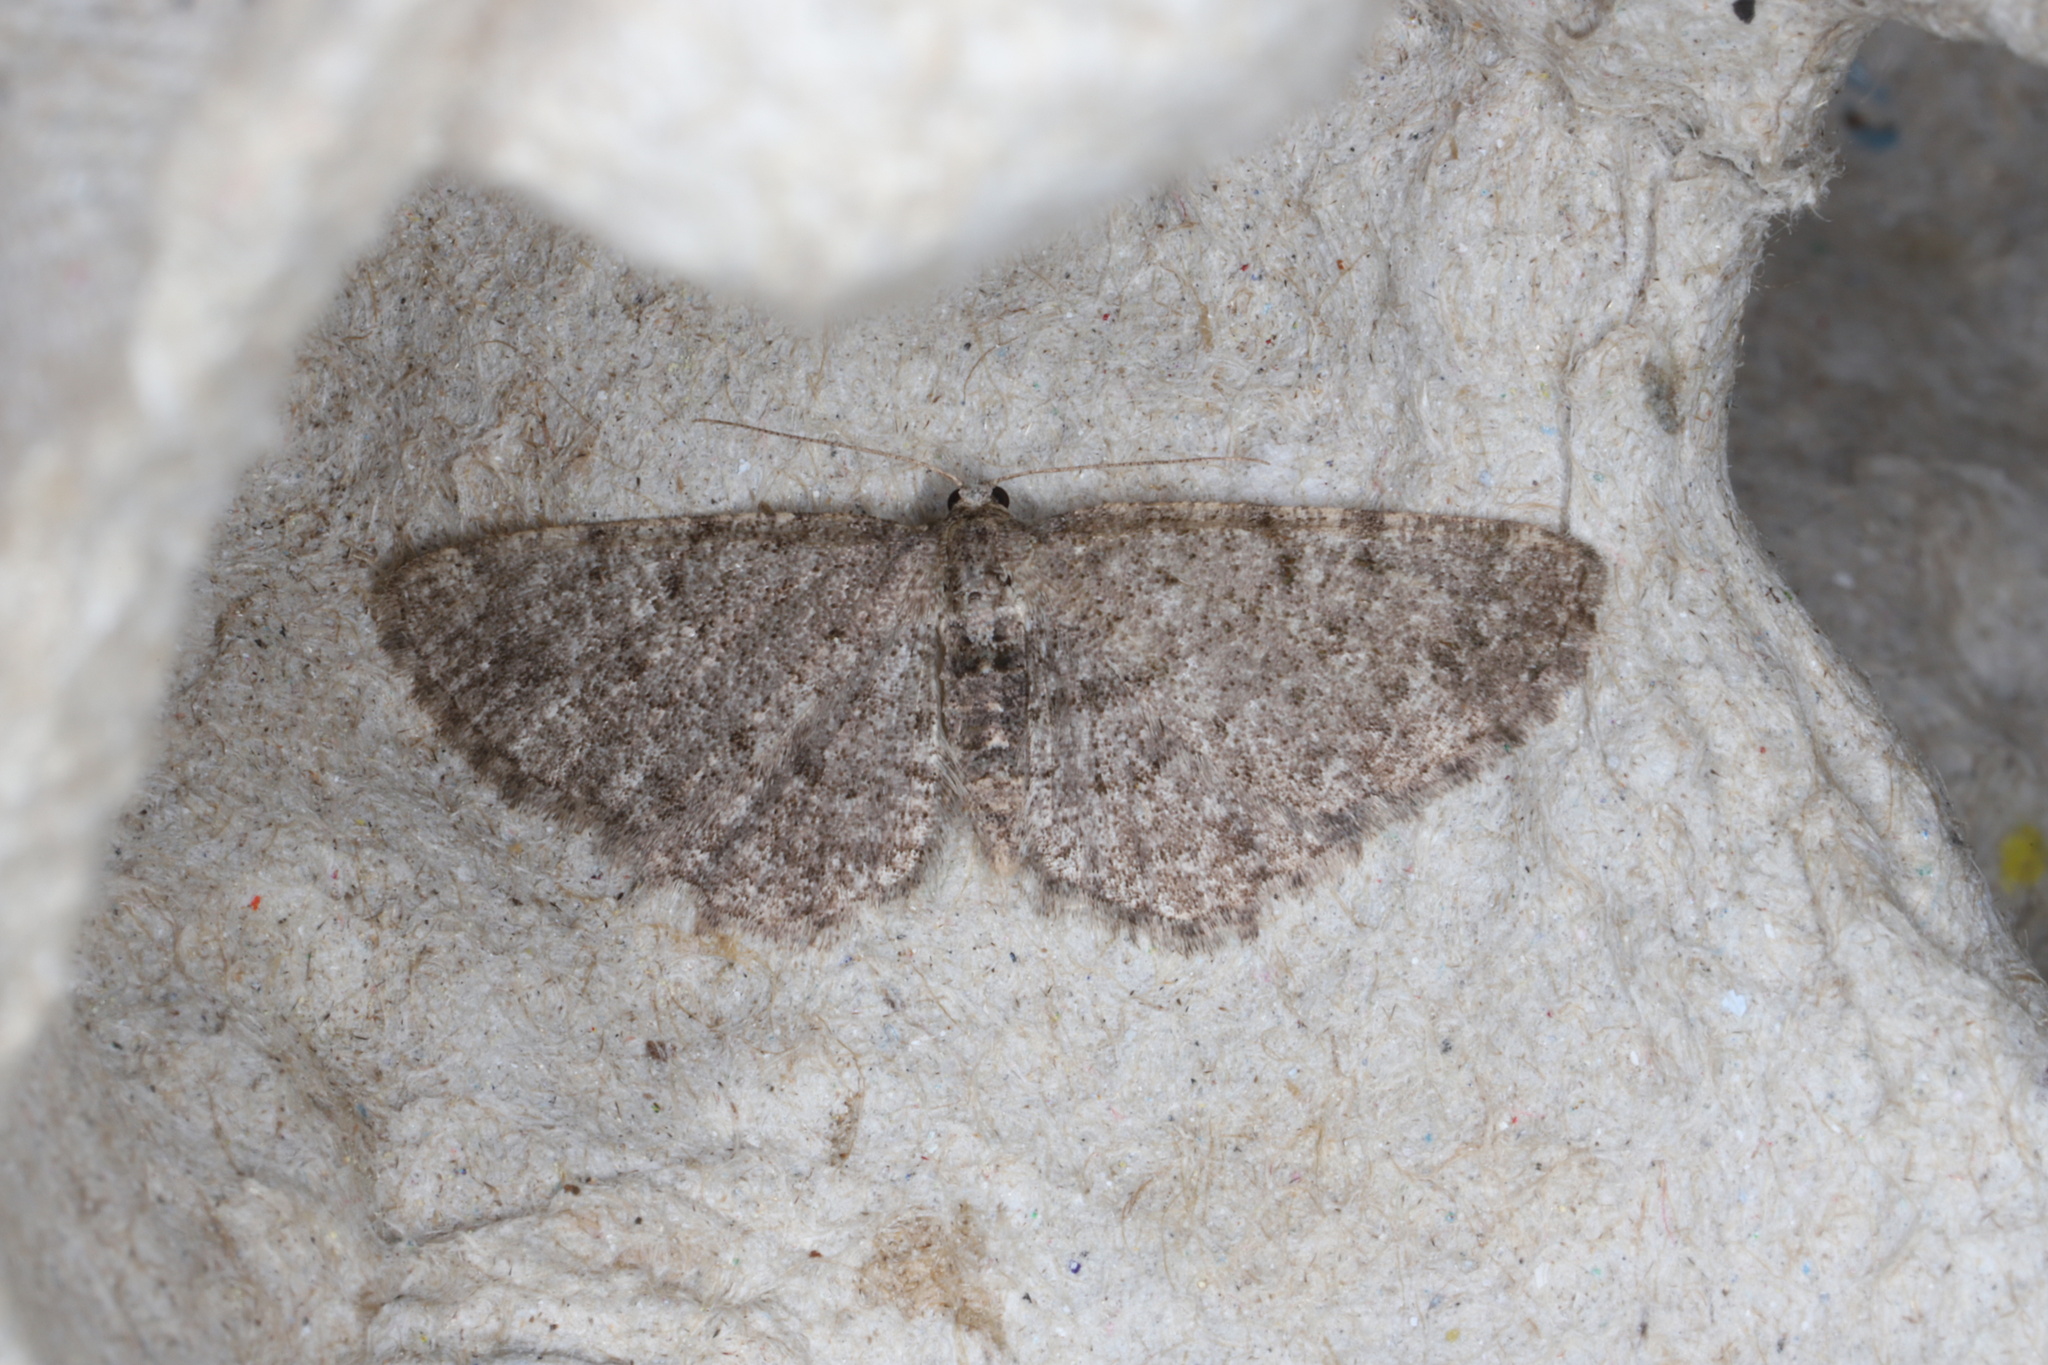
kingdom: Animalia
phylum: Arthropoda
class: Insecta
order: Lepidoptera
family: Geometridae
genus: Aethalura
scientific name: Aethalura intertexta
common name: Four-barred gray
